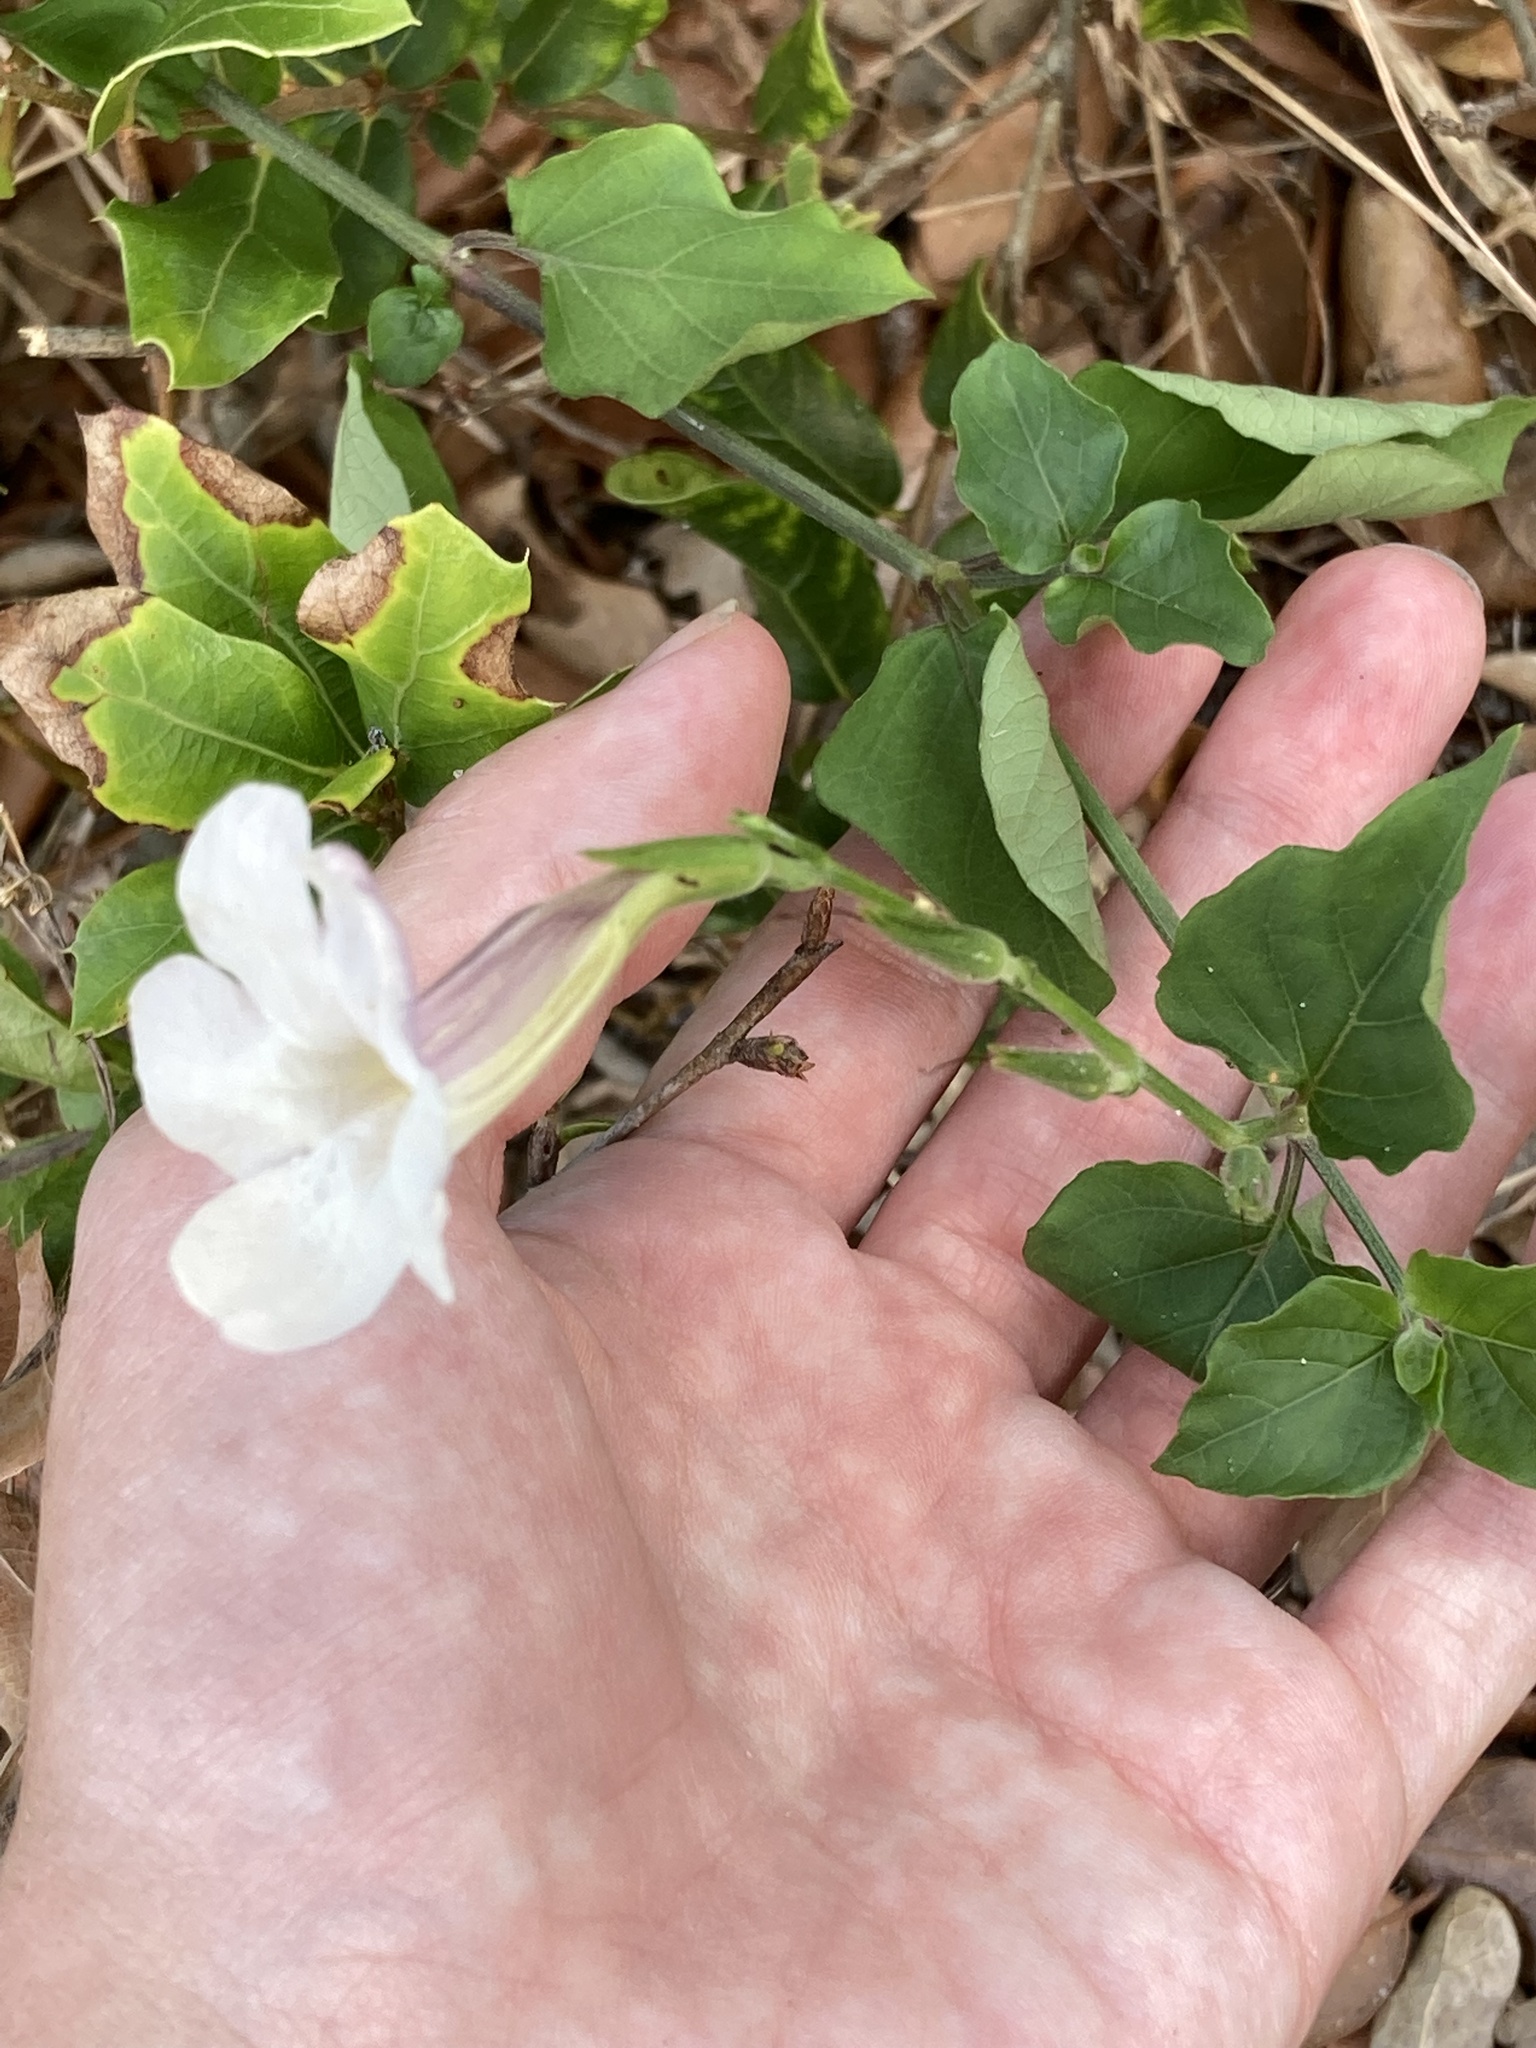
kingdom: Plantae
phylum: Tracheophyta
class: Magnoliopsida
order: Lamiales
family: Acanthaceae
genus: Asystasia
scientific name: Asystasia gangetica
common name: Chinese violet
